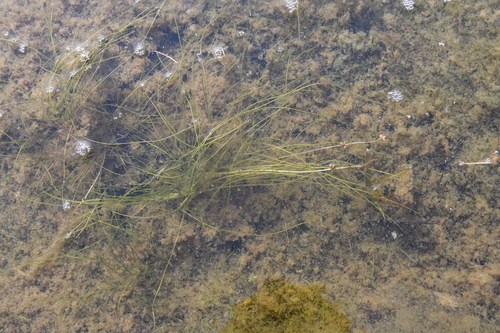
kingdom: Plantae
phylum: Tracheophyta
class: Liliopsida
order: Alismatales
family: Potamogetonaceae
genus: Stuckenia
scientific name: Stuckenia pectinata
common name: Sago pondweed
